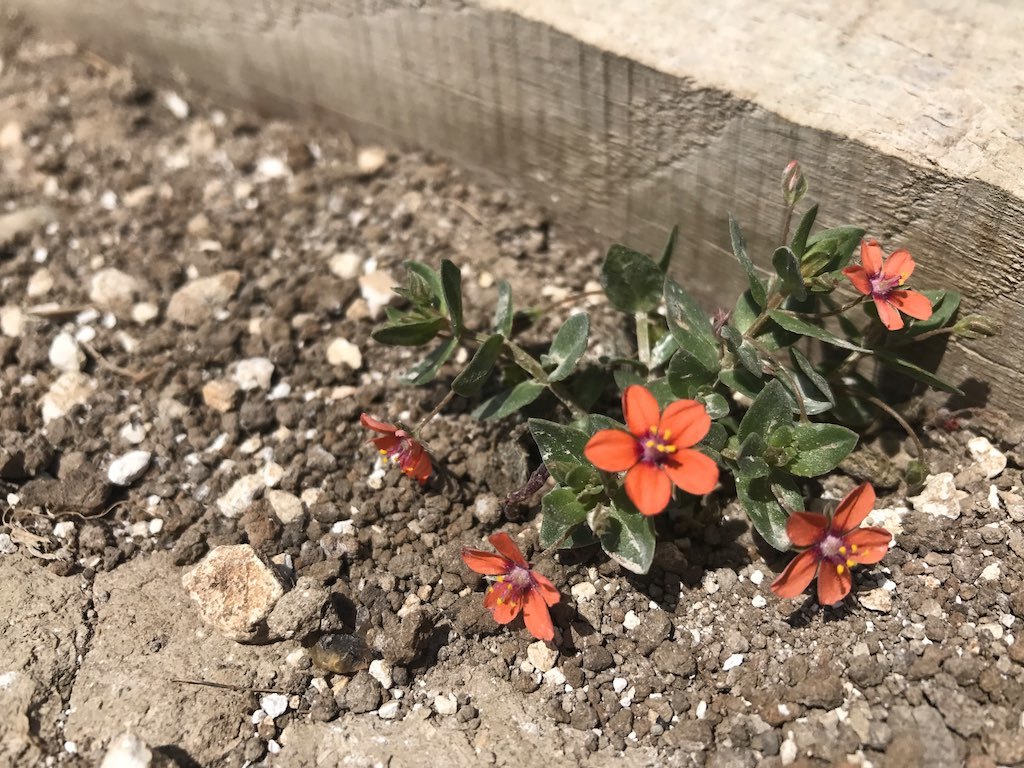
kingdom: Plantae
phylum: Tracheophyta
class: Magnoliopsida
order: Ericales
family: Primulaceae
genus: Lysimachia
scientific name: Lysimachia arvensis
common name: Scarlet pimpernel
